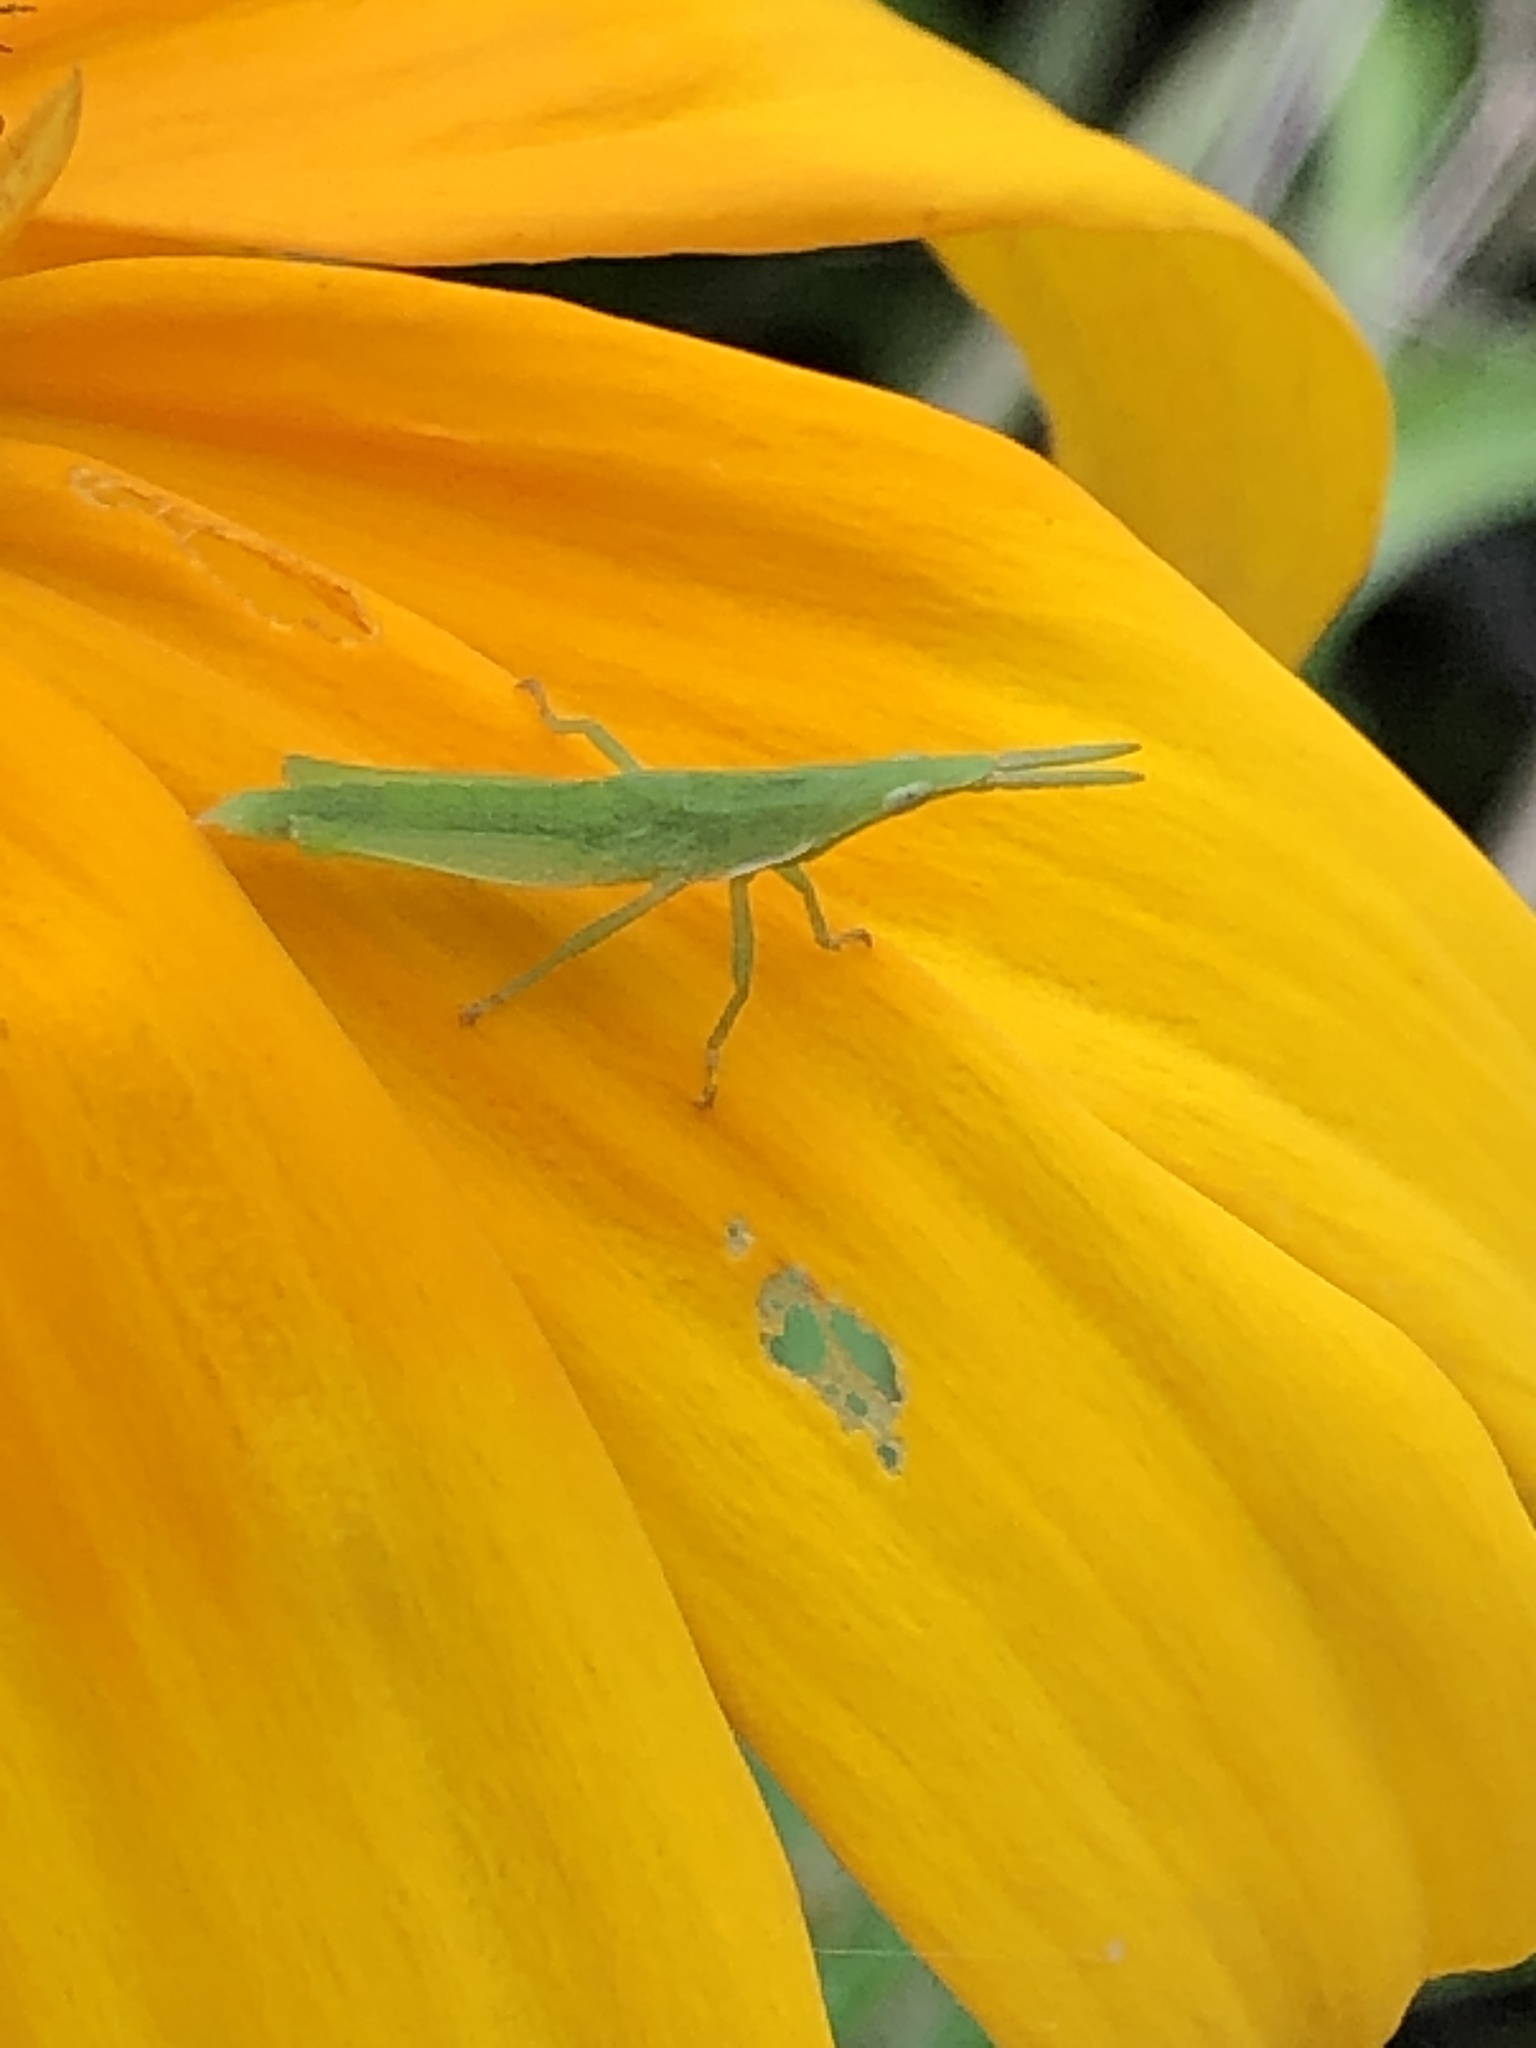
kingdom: Animalia
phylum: Arthropoda
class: Insecta
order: Orthoptera
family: Pyrgomorphidae
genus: Atractomorpha
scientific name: Atractomorpha lata
